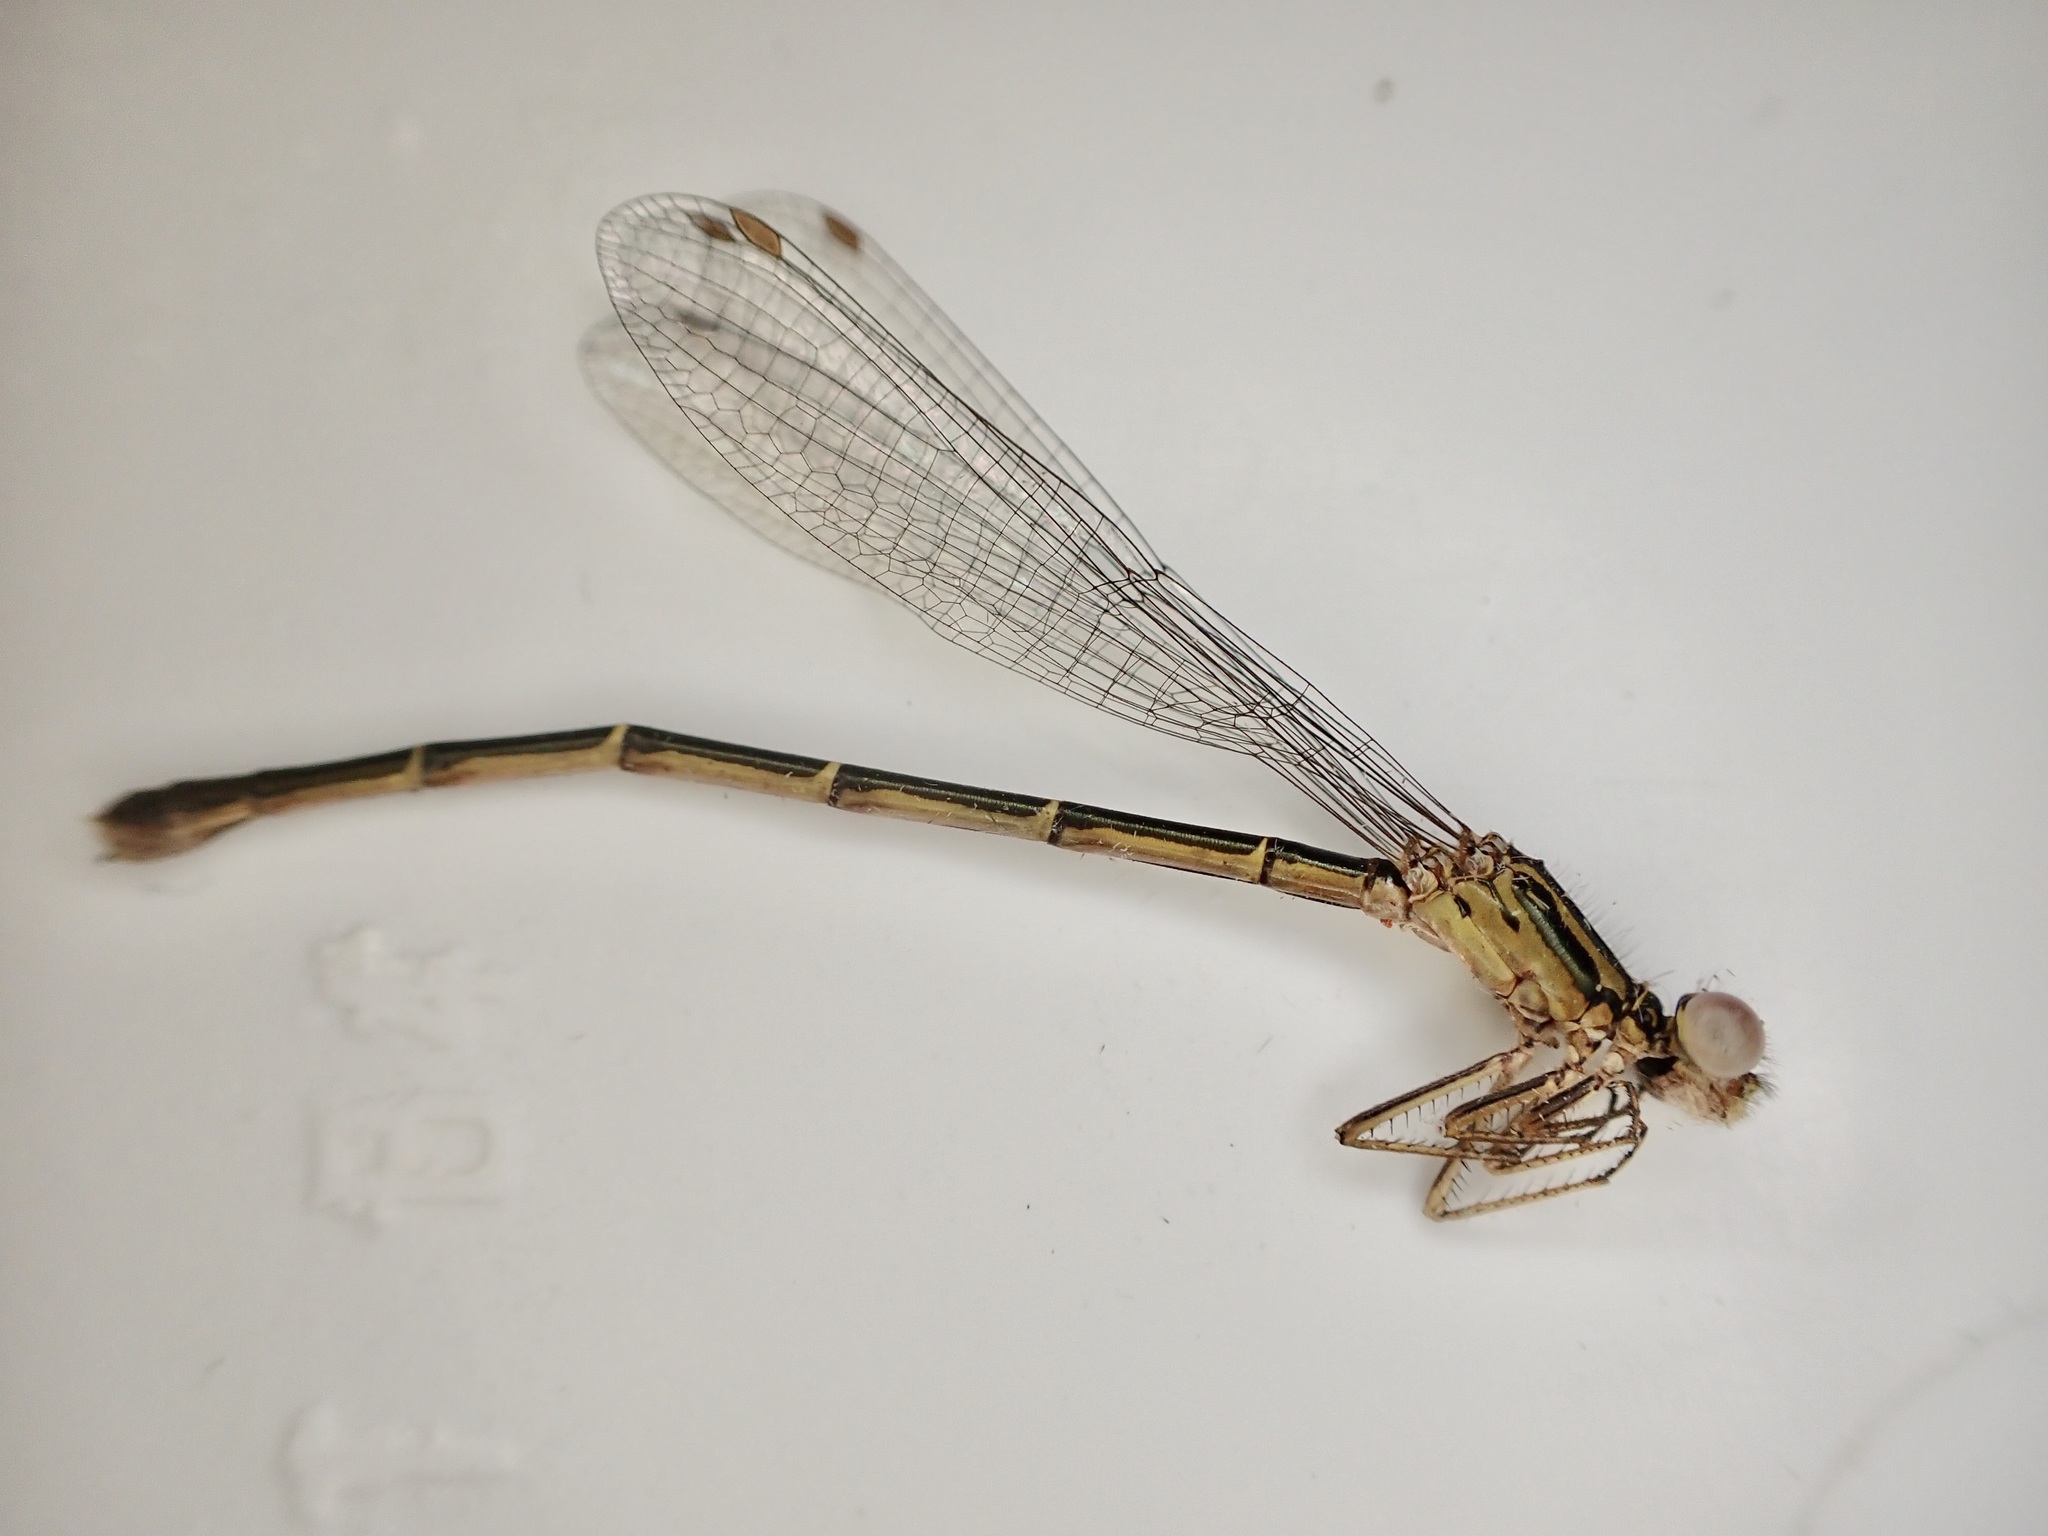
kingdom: Animalia
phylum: Arthropoda
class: Insecta
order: Odonata
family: Coenagrionidae
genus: Xanthocnemis
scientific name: Xanthocnemis zealandica
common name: Common redcoat damselfly
